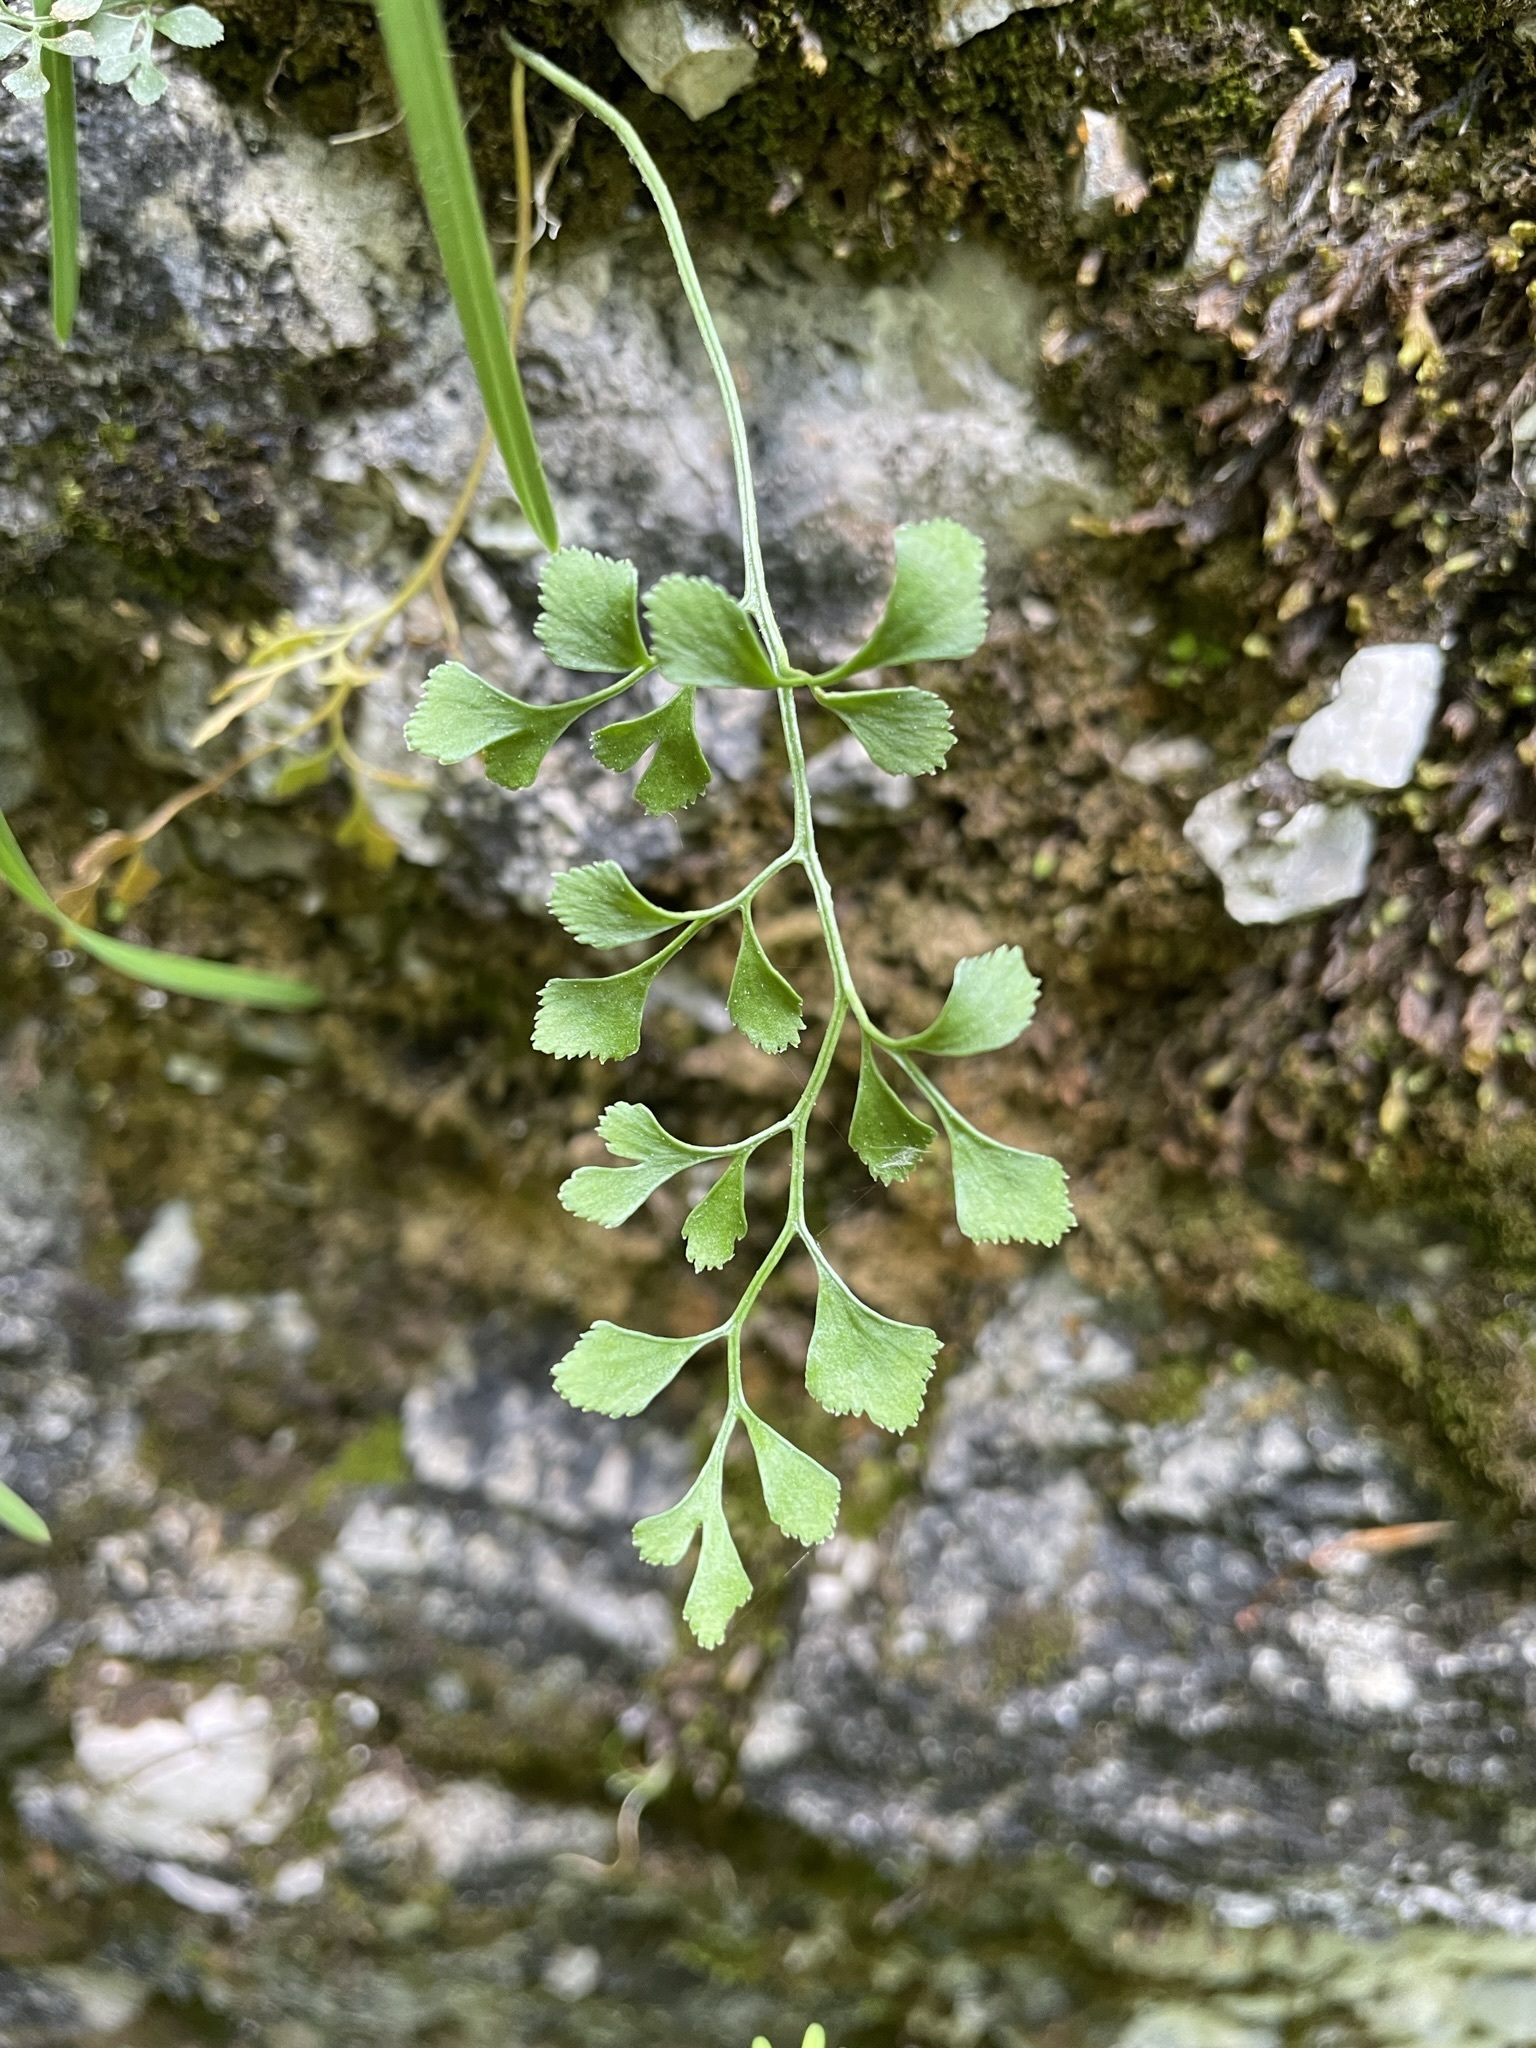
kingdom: Plantae
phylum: Tracheophyta
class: Polypodiopsida
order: Polypodiales
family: Aspleniaceae
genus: Asplenium
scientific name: Asplenium ruta-muraria
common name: Wall-rue
